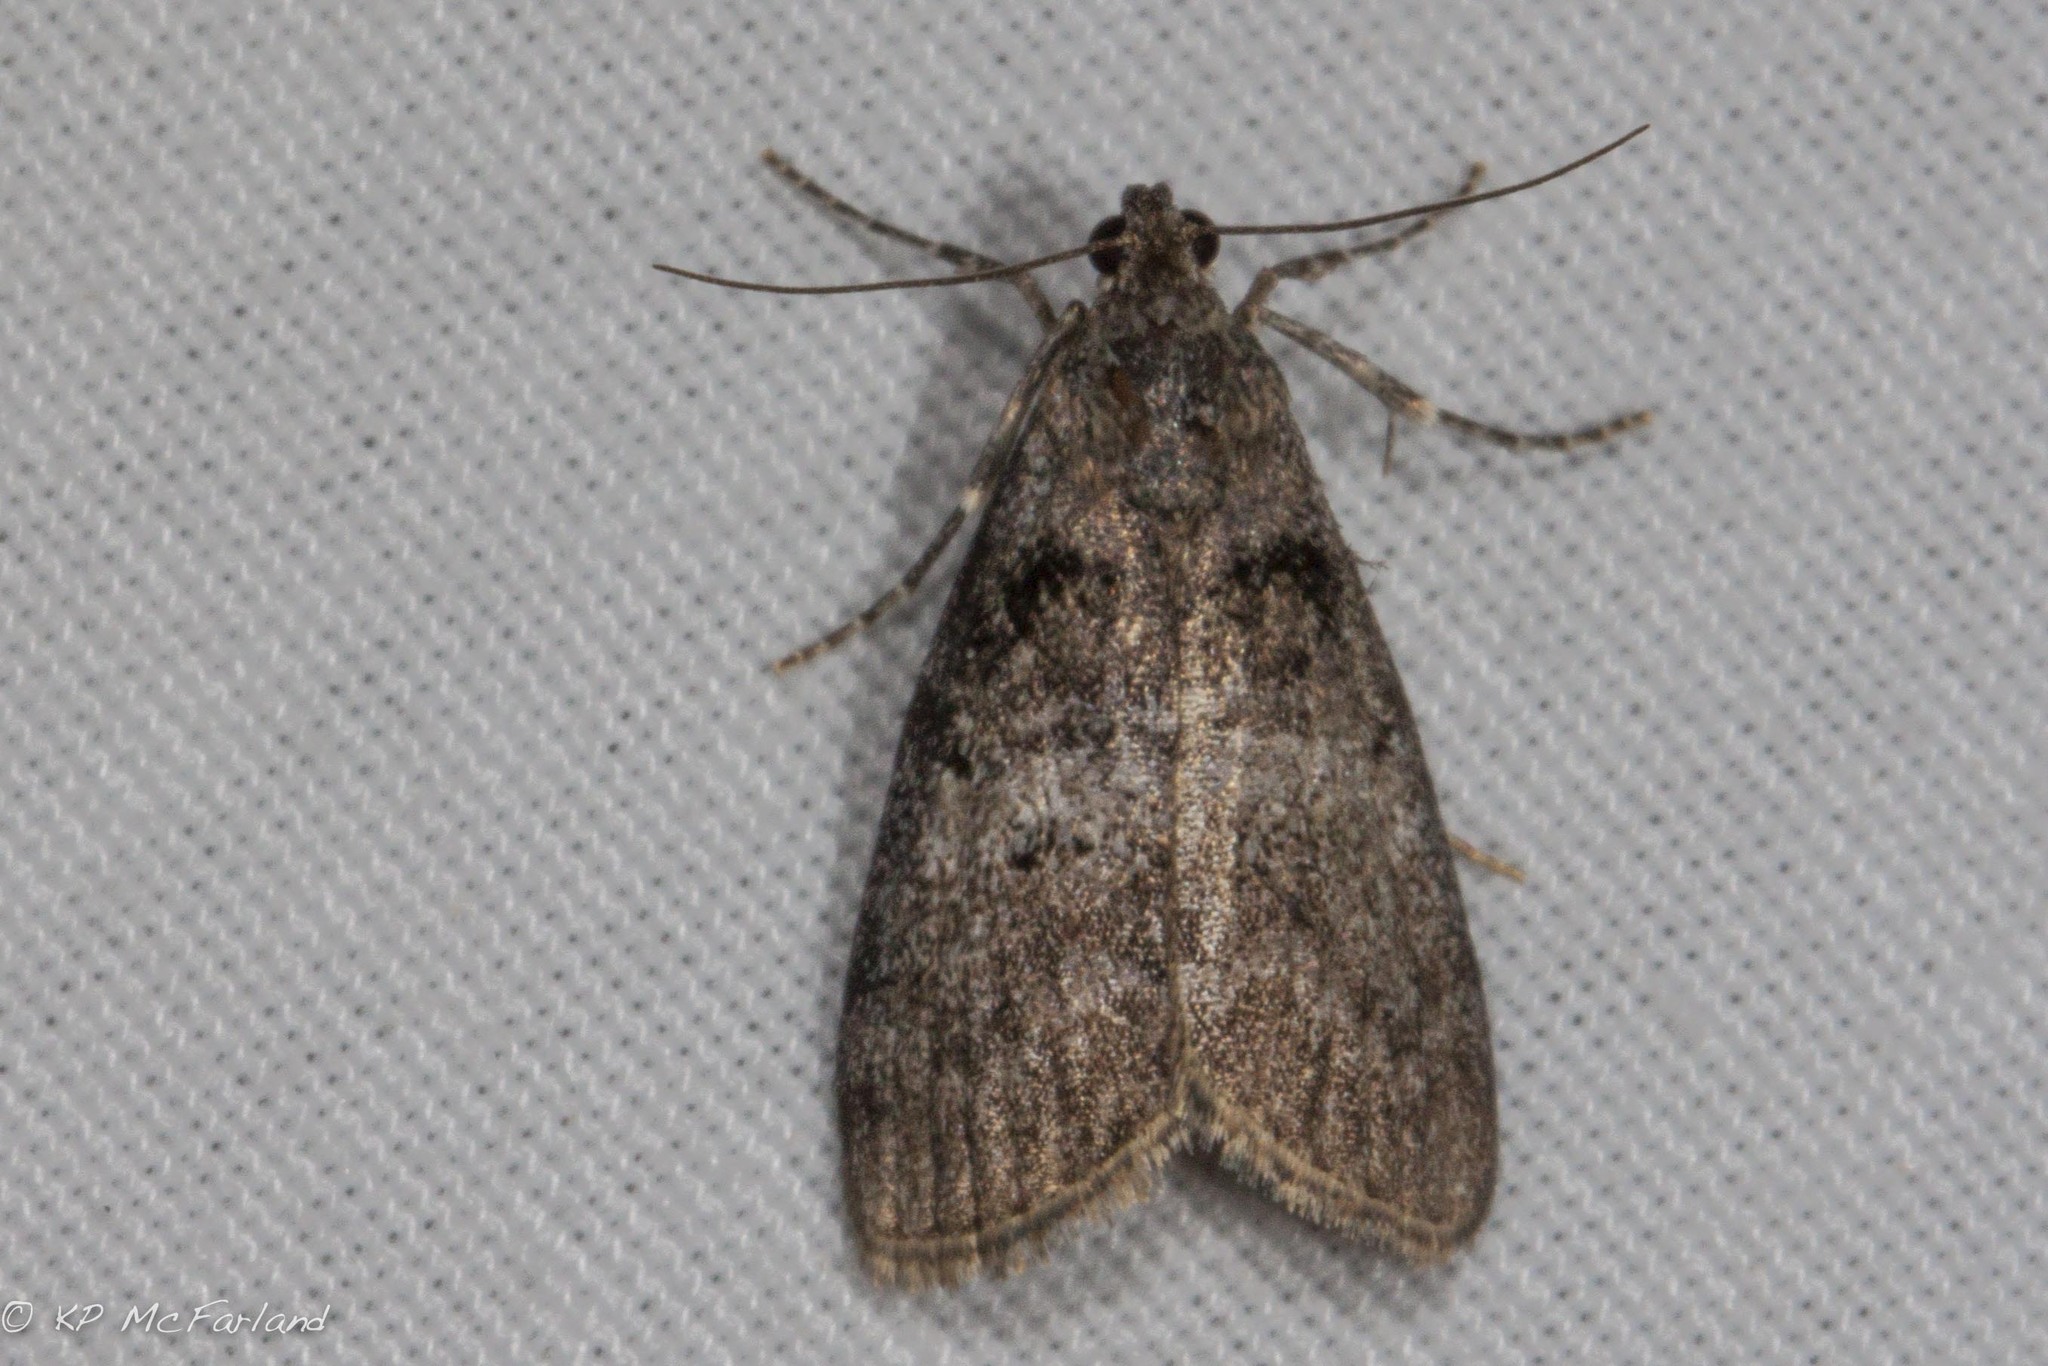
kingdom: Animalia
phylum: Arthropoda
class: Insecta
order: Lepidoptera
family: Pyralidae
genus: Pococera
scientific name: Pococera asperatella
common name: Maple webworm moth
